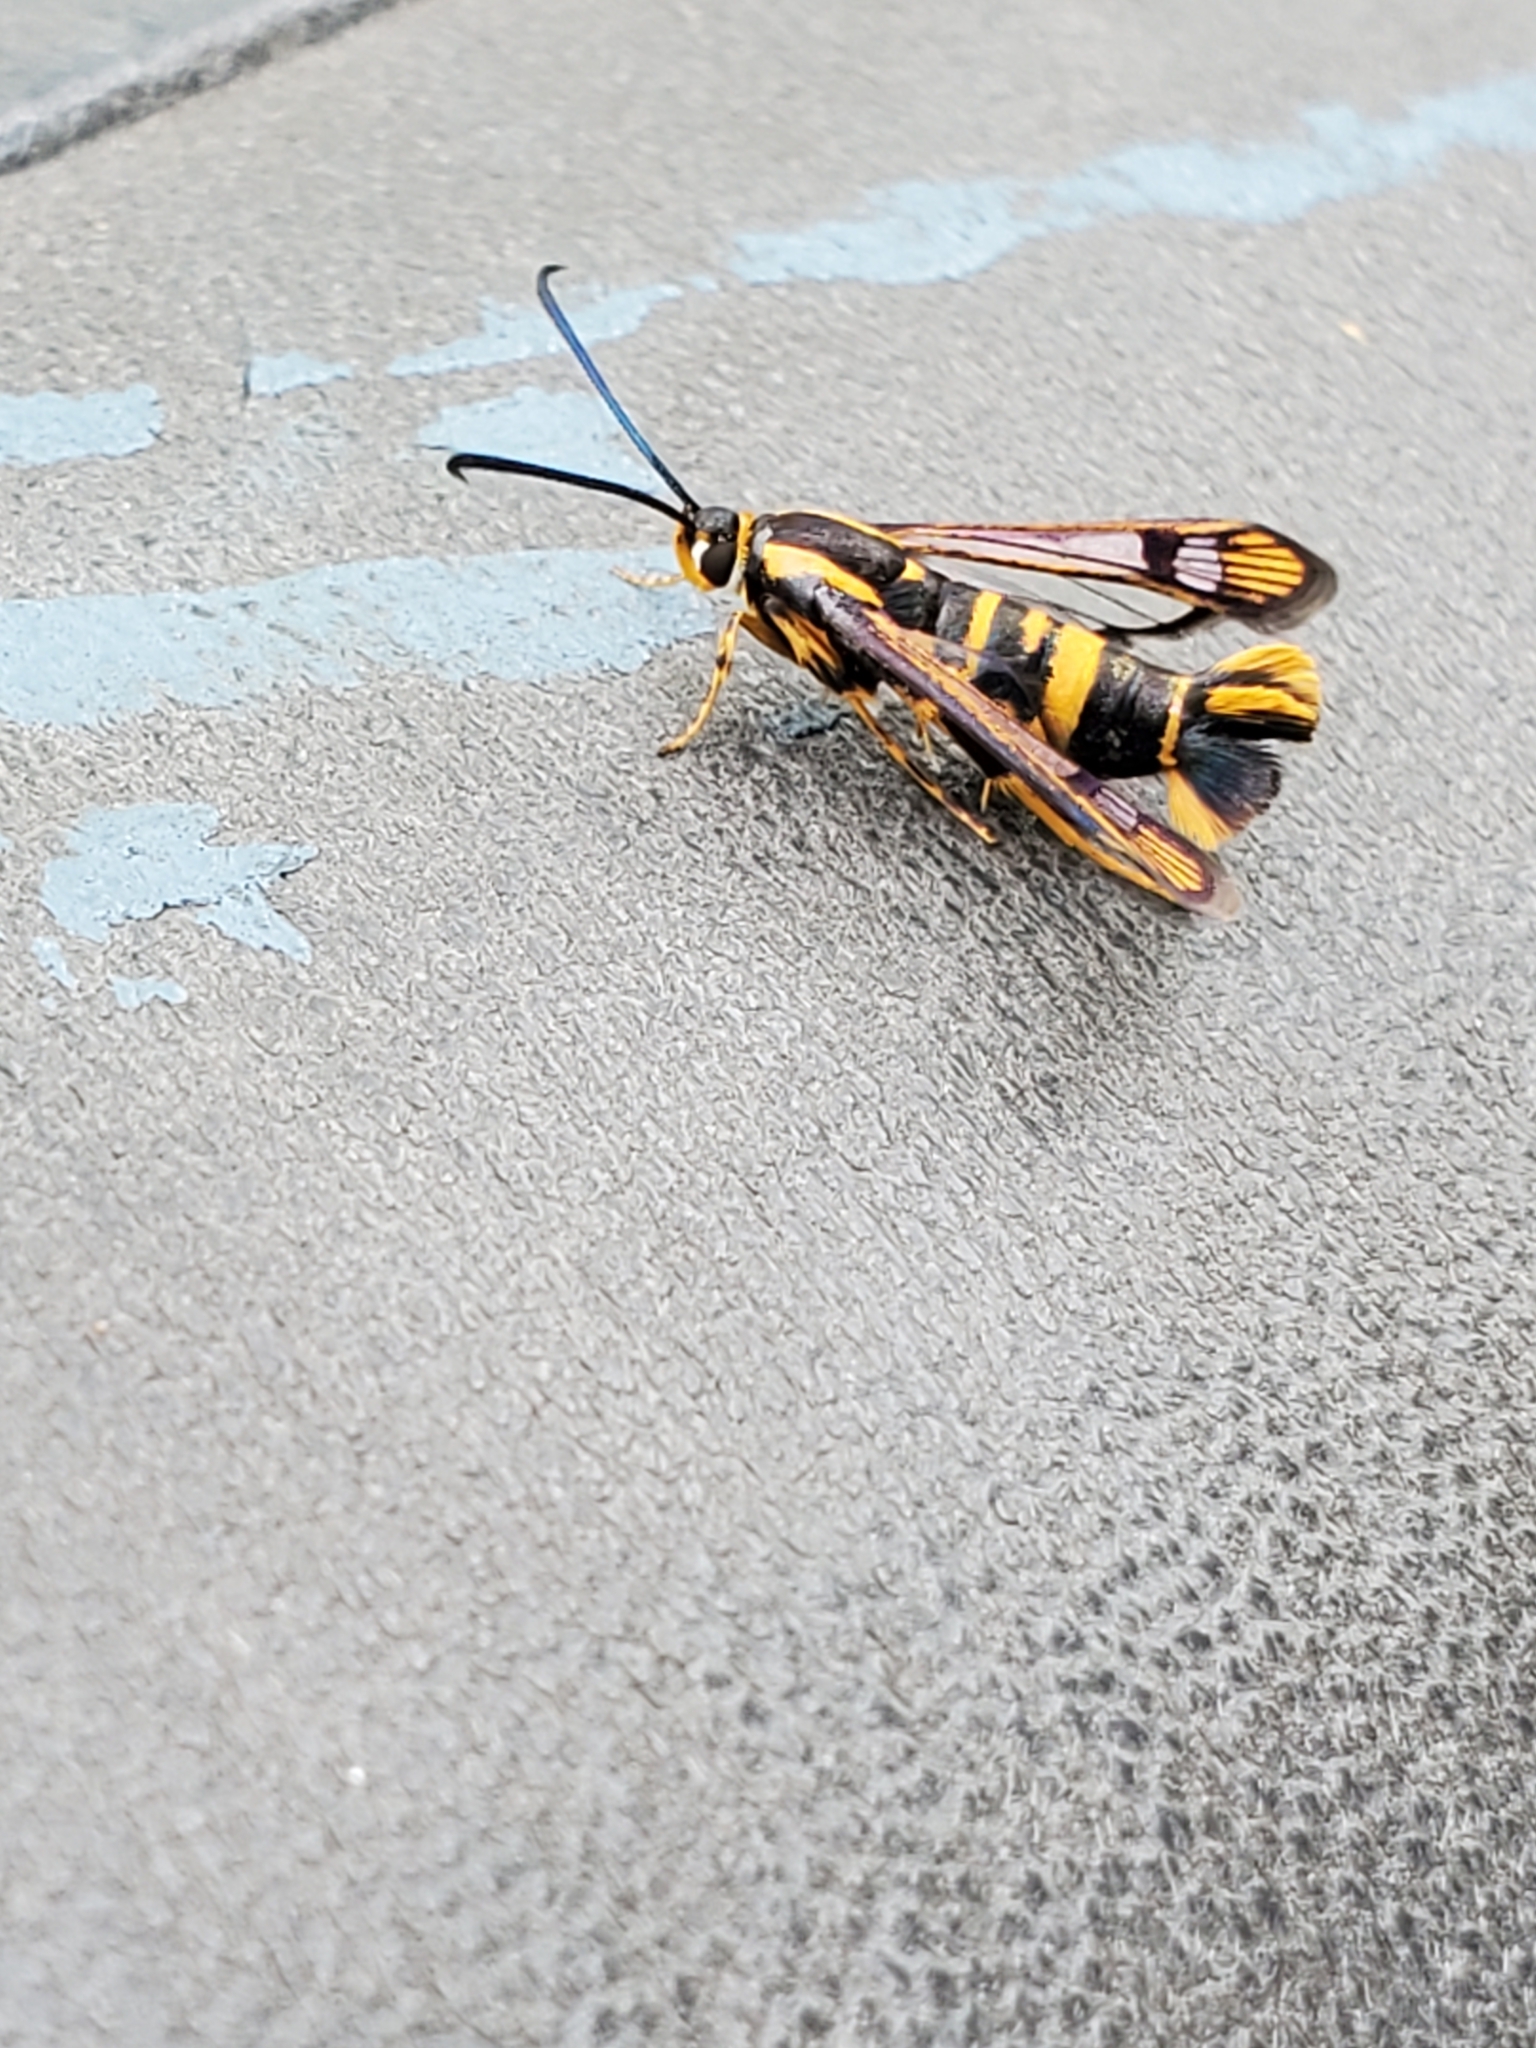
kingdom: Animalia
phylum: Arthropoda
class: Insecta
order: Lepidoptera
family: Sesiidae
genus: Synanthedon
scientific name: Synanthedon scitula
